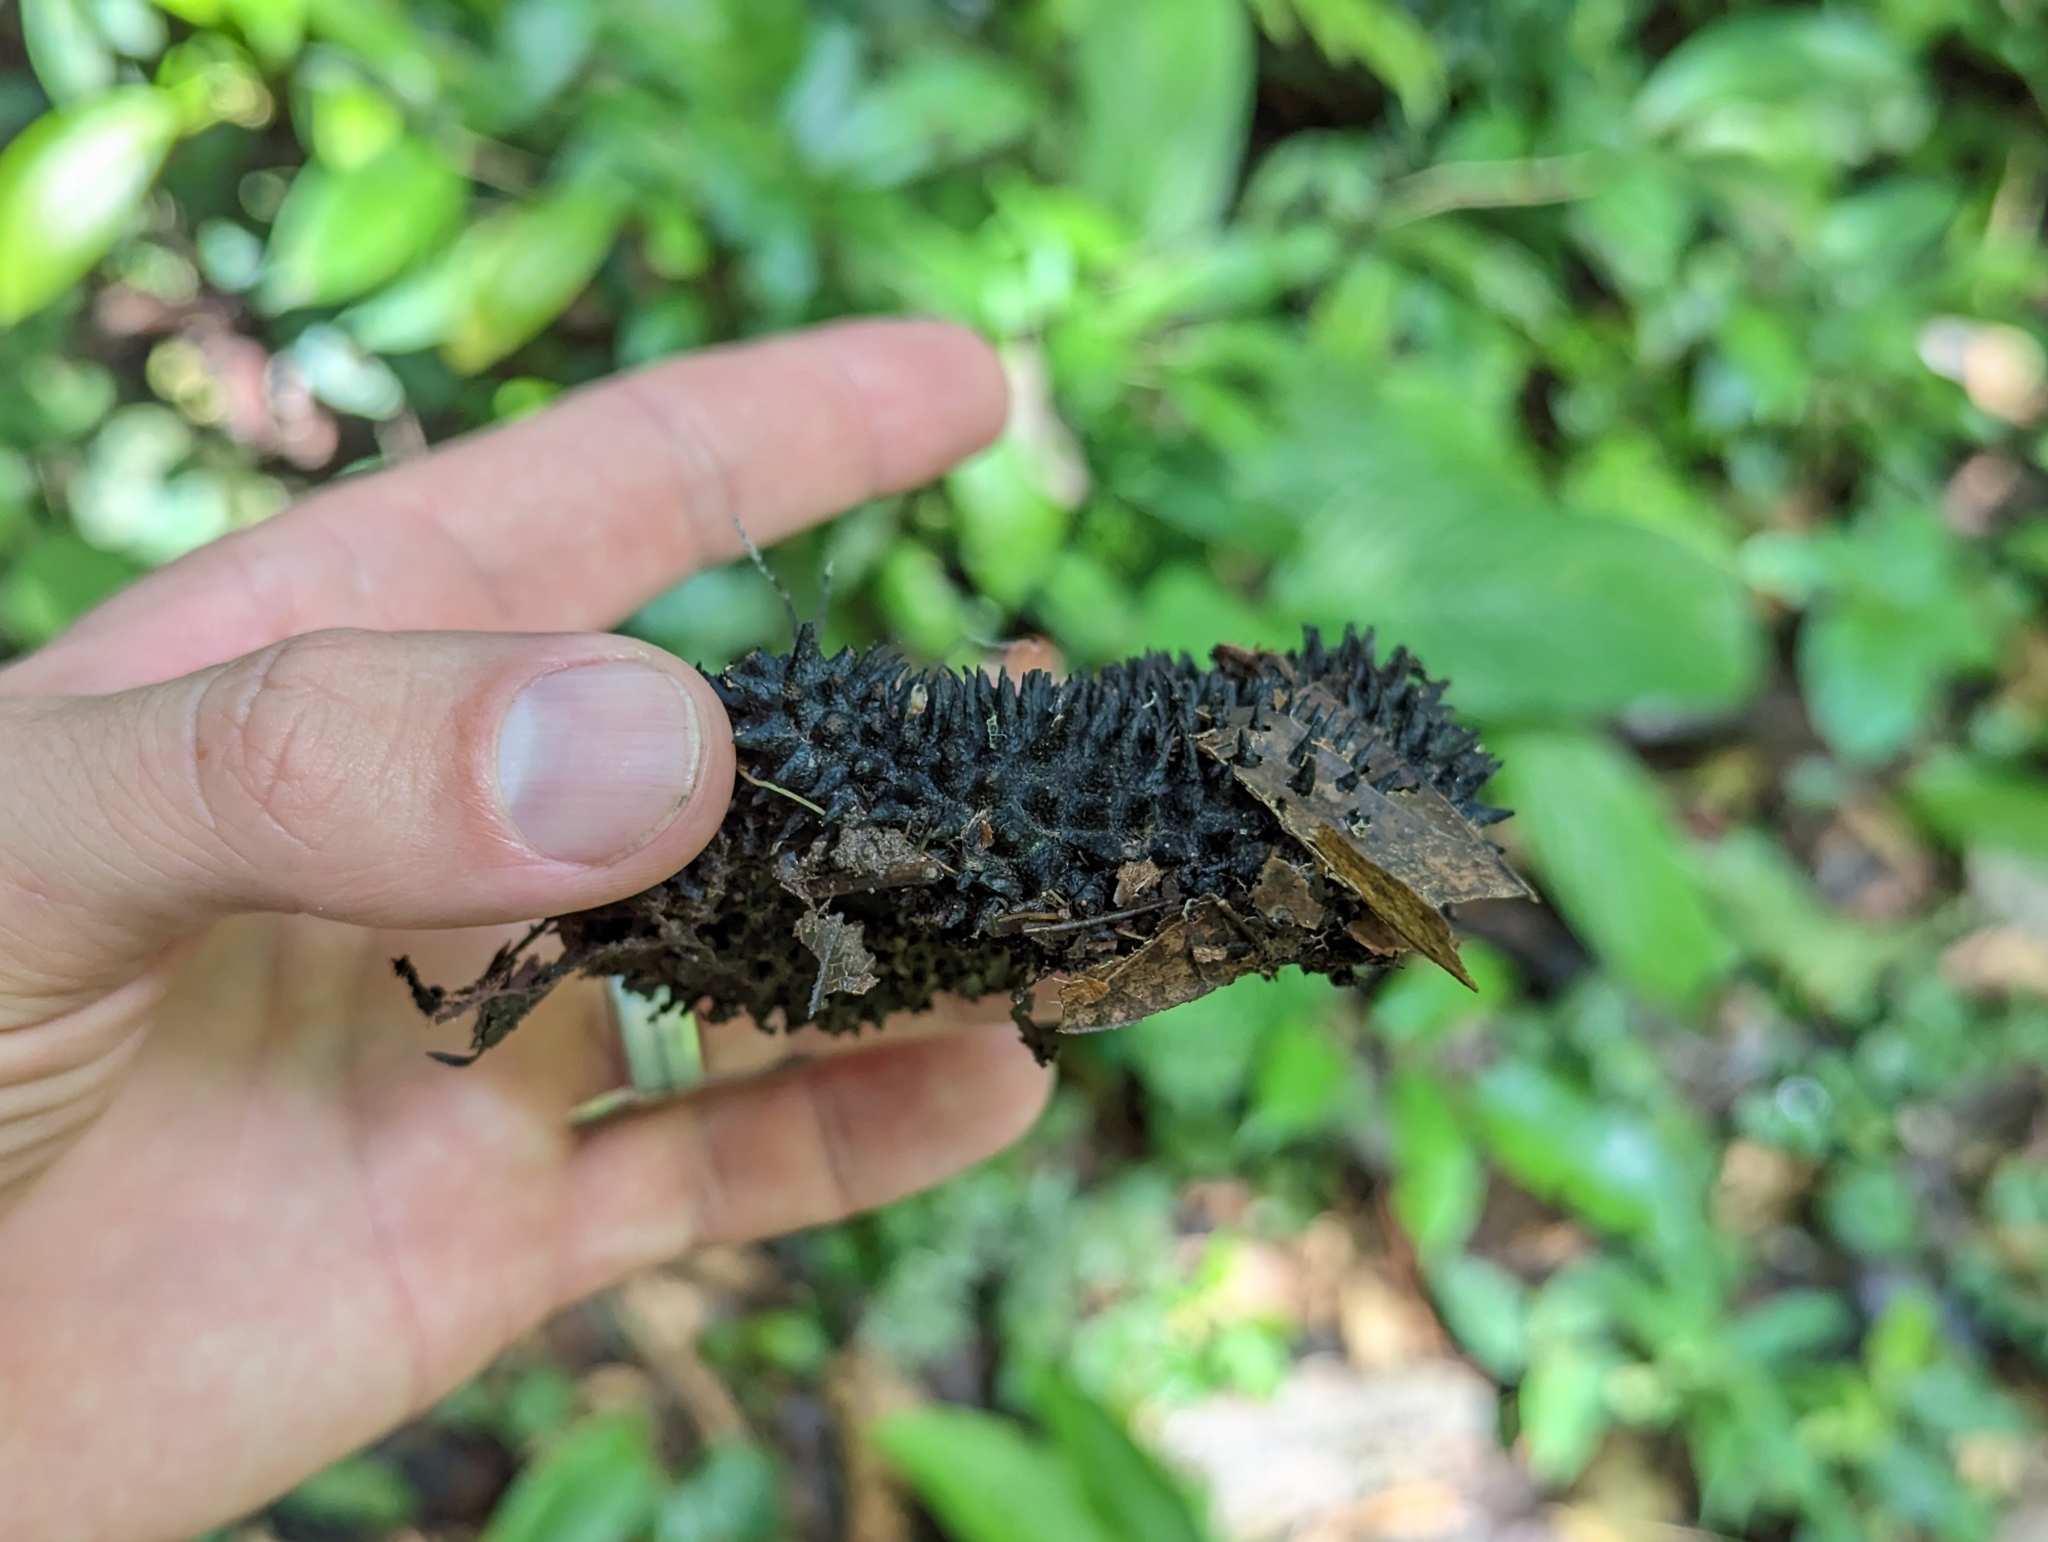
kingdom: Plantae
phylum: Tracheophyta
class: Magnoliopsida
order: Malvales
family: Malvaceae
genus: Apeiba
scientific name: Apeiba membranacea
